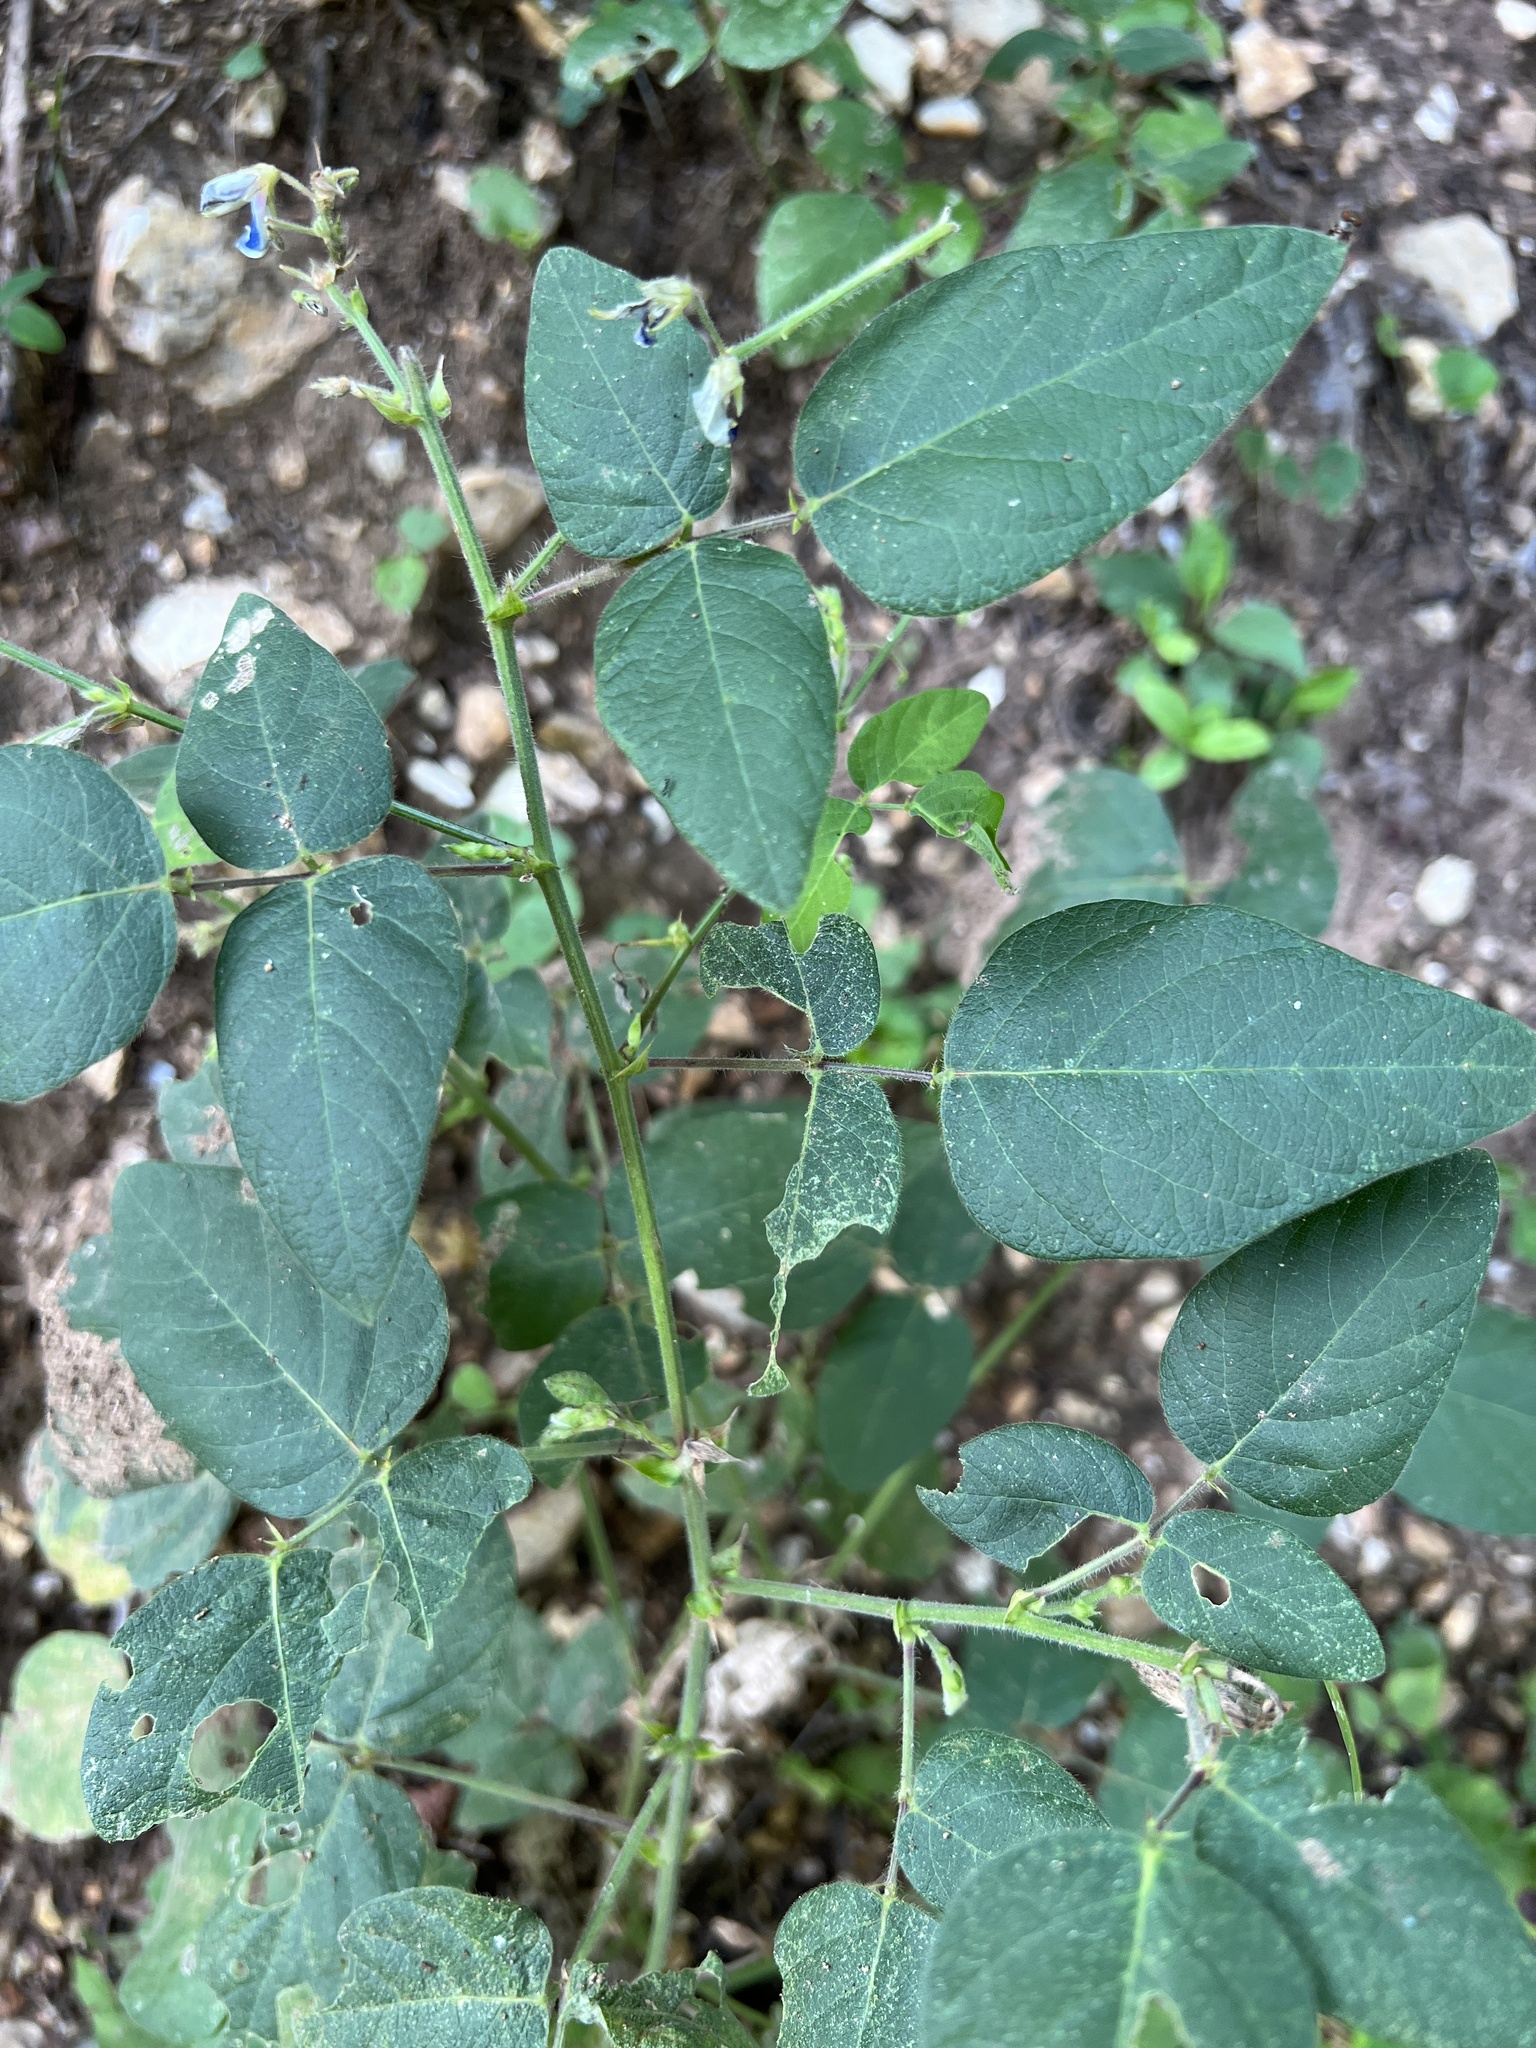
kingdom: Plantae
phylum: Tracheophyta
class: Magnoliopsida
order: Fabales
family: Fabaceae
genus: Desmodium
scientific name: Desmodium canescens
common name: Hoary tick-clover
